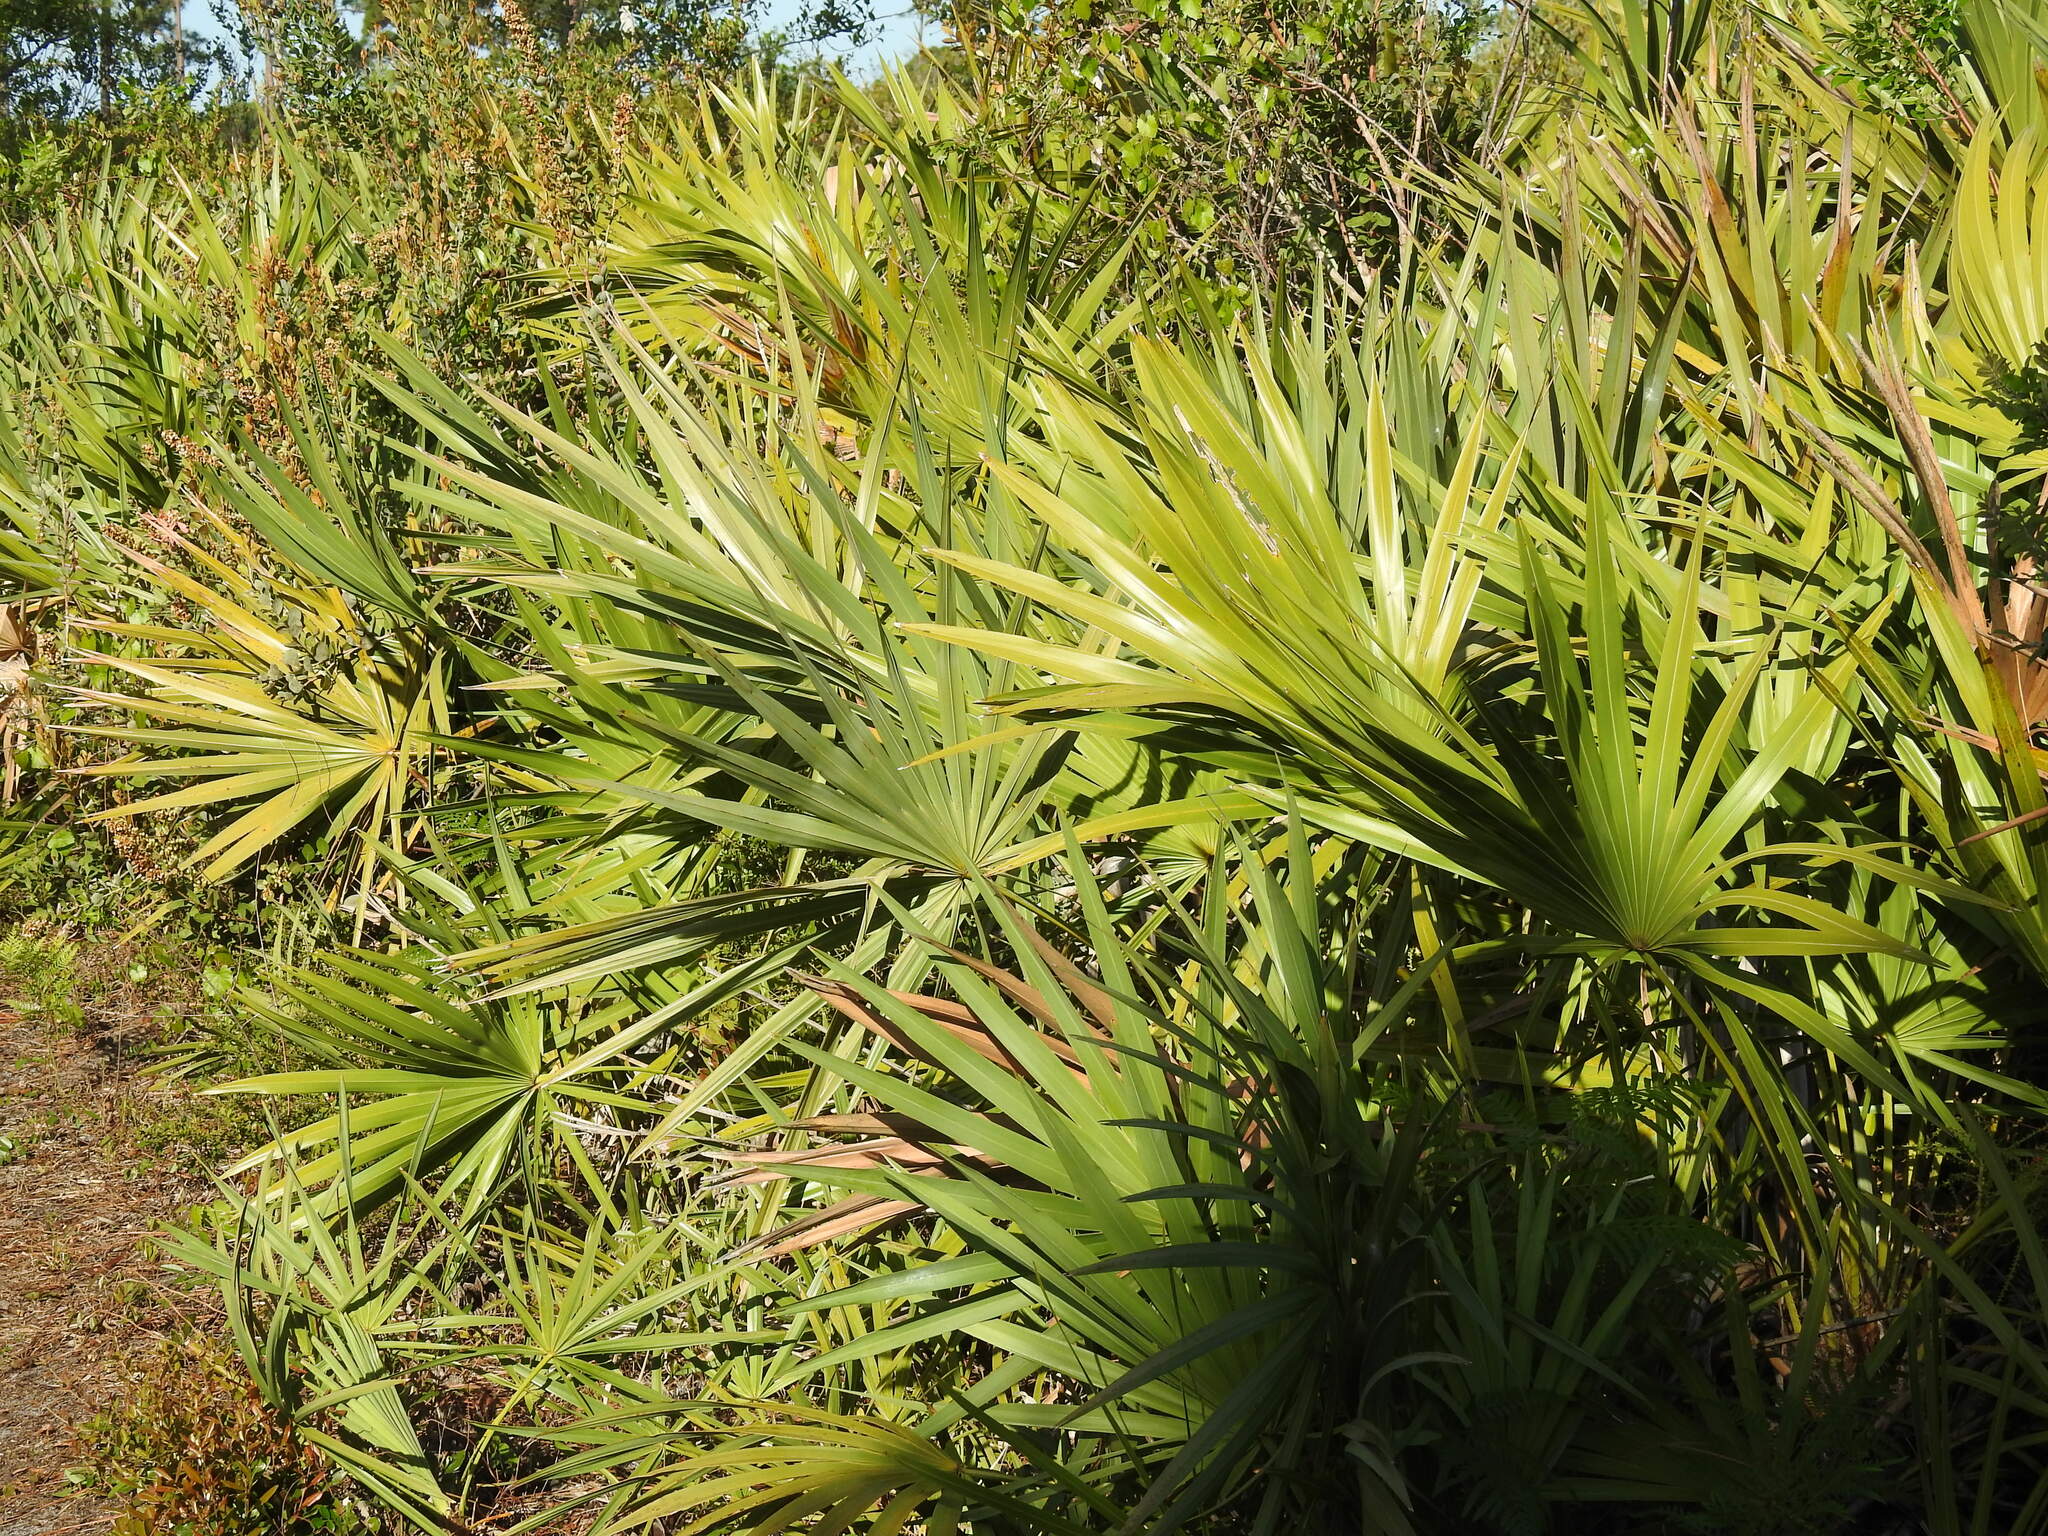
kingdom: Plantae
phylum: Tracheophyta
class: Liliopsida
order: Arecales
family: Arecaceae
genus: Serenoa
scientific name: Serenoa repens
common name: Saw-palmetto
